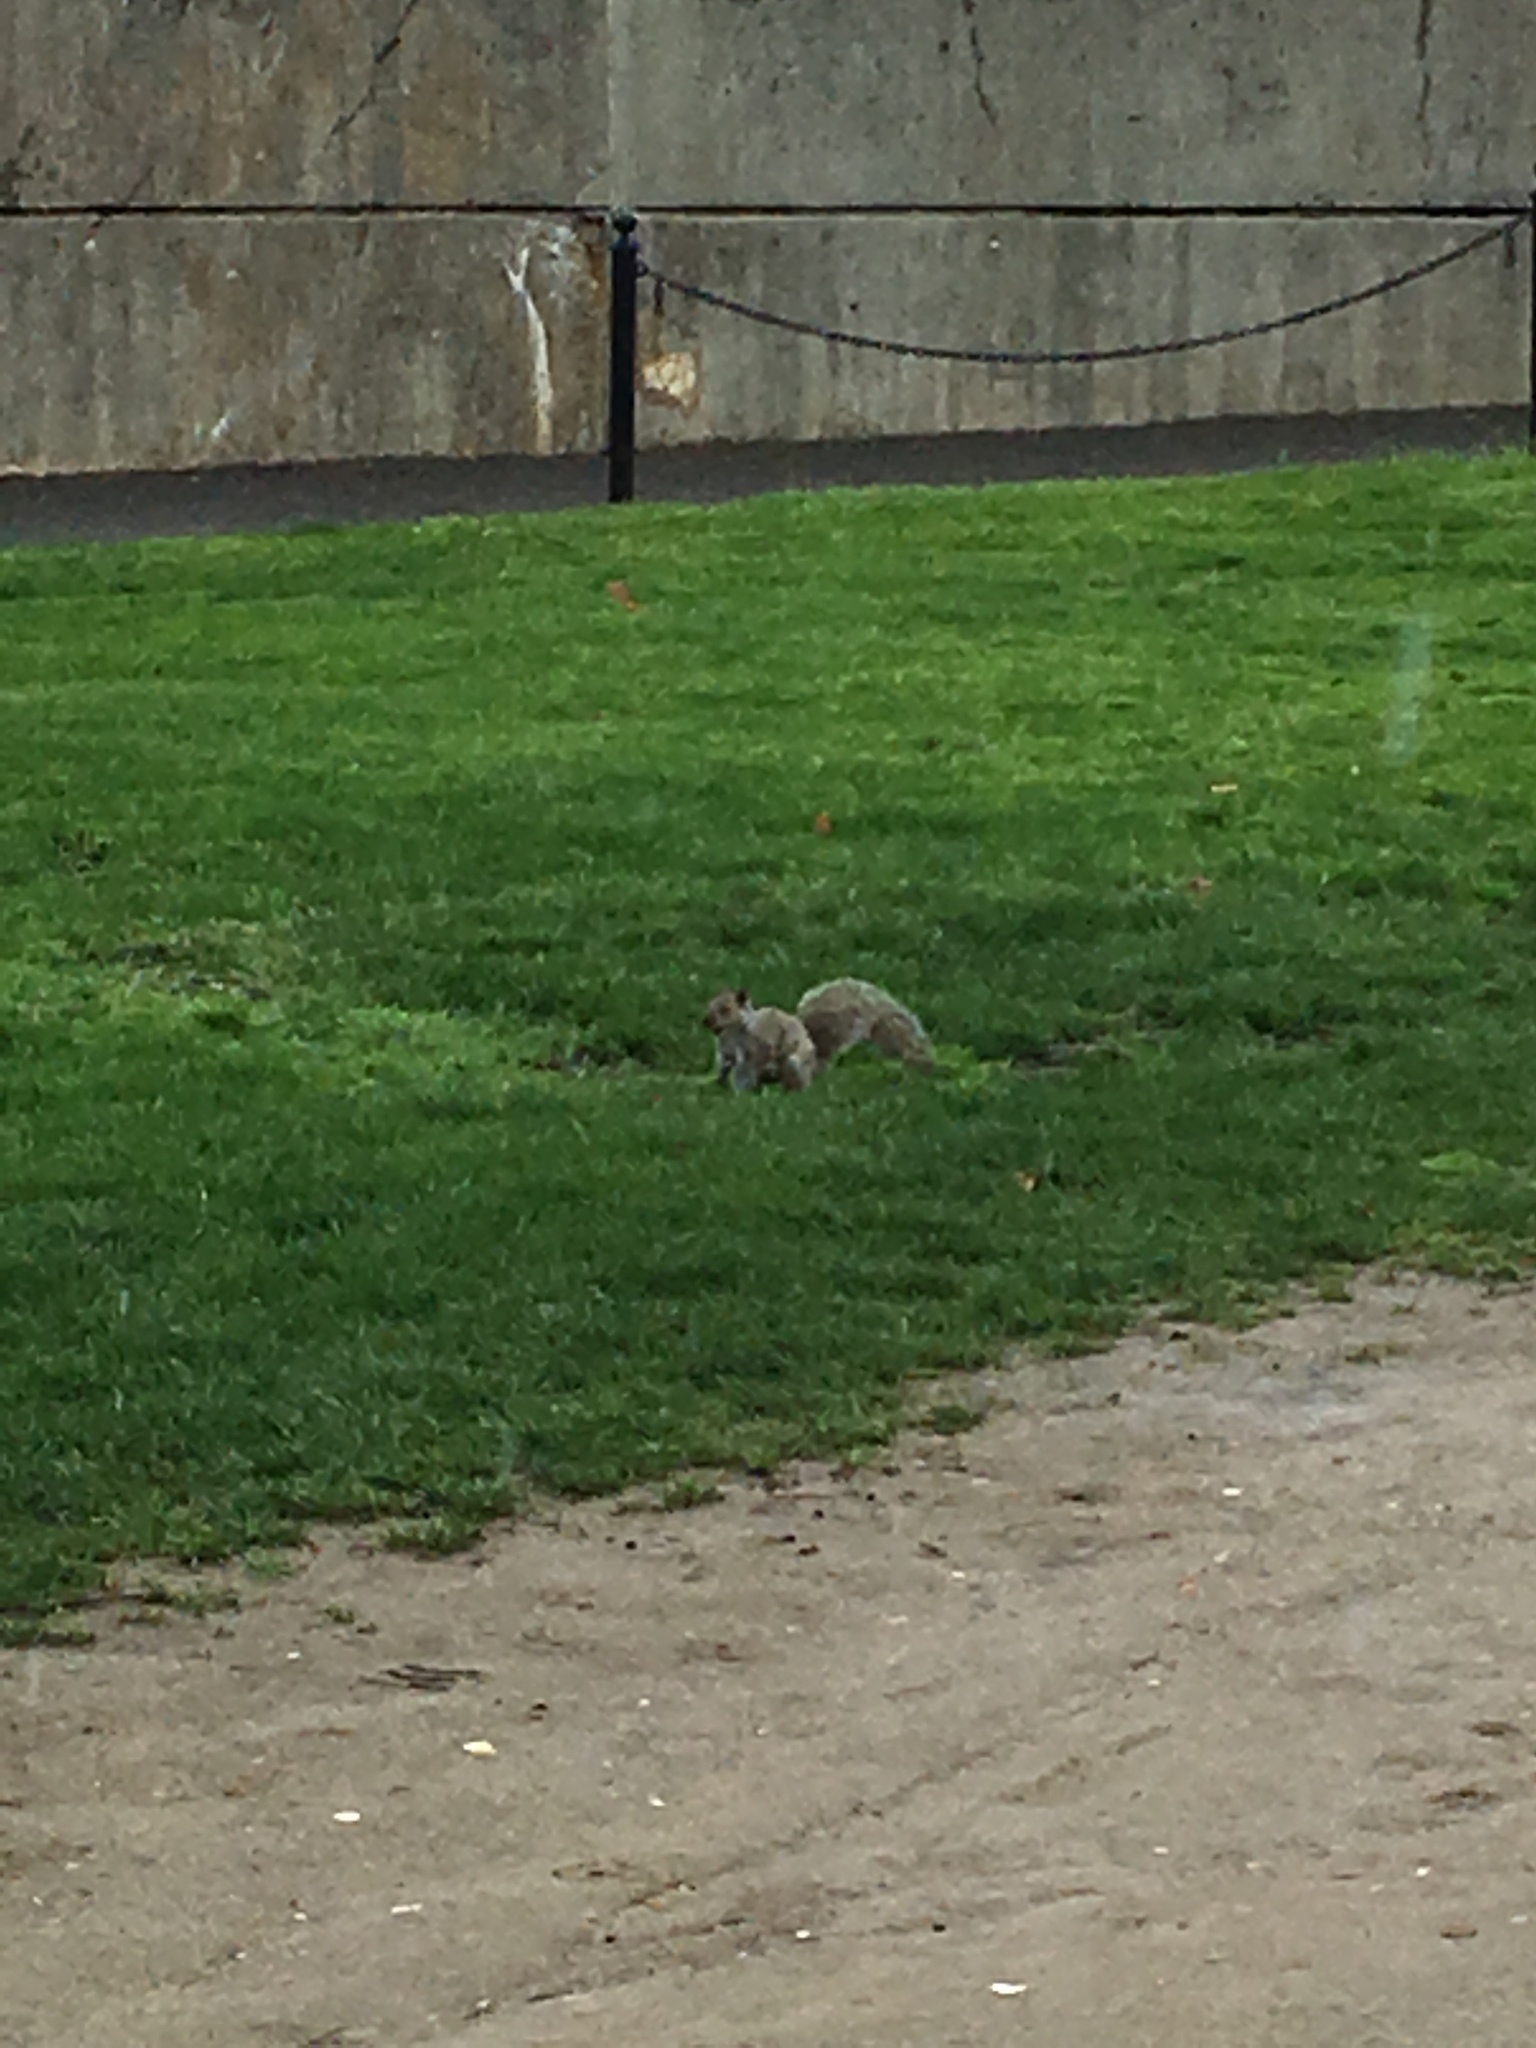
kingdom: Animalia
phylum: Chordata
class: Mammalia
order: Rodentia
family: Sciuridae
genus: Sciurus
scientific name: Sciurus carolinensis
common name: Eastern gray squirrel
